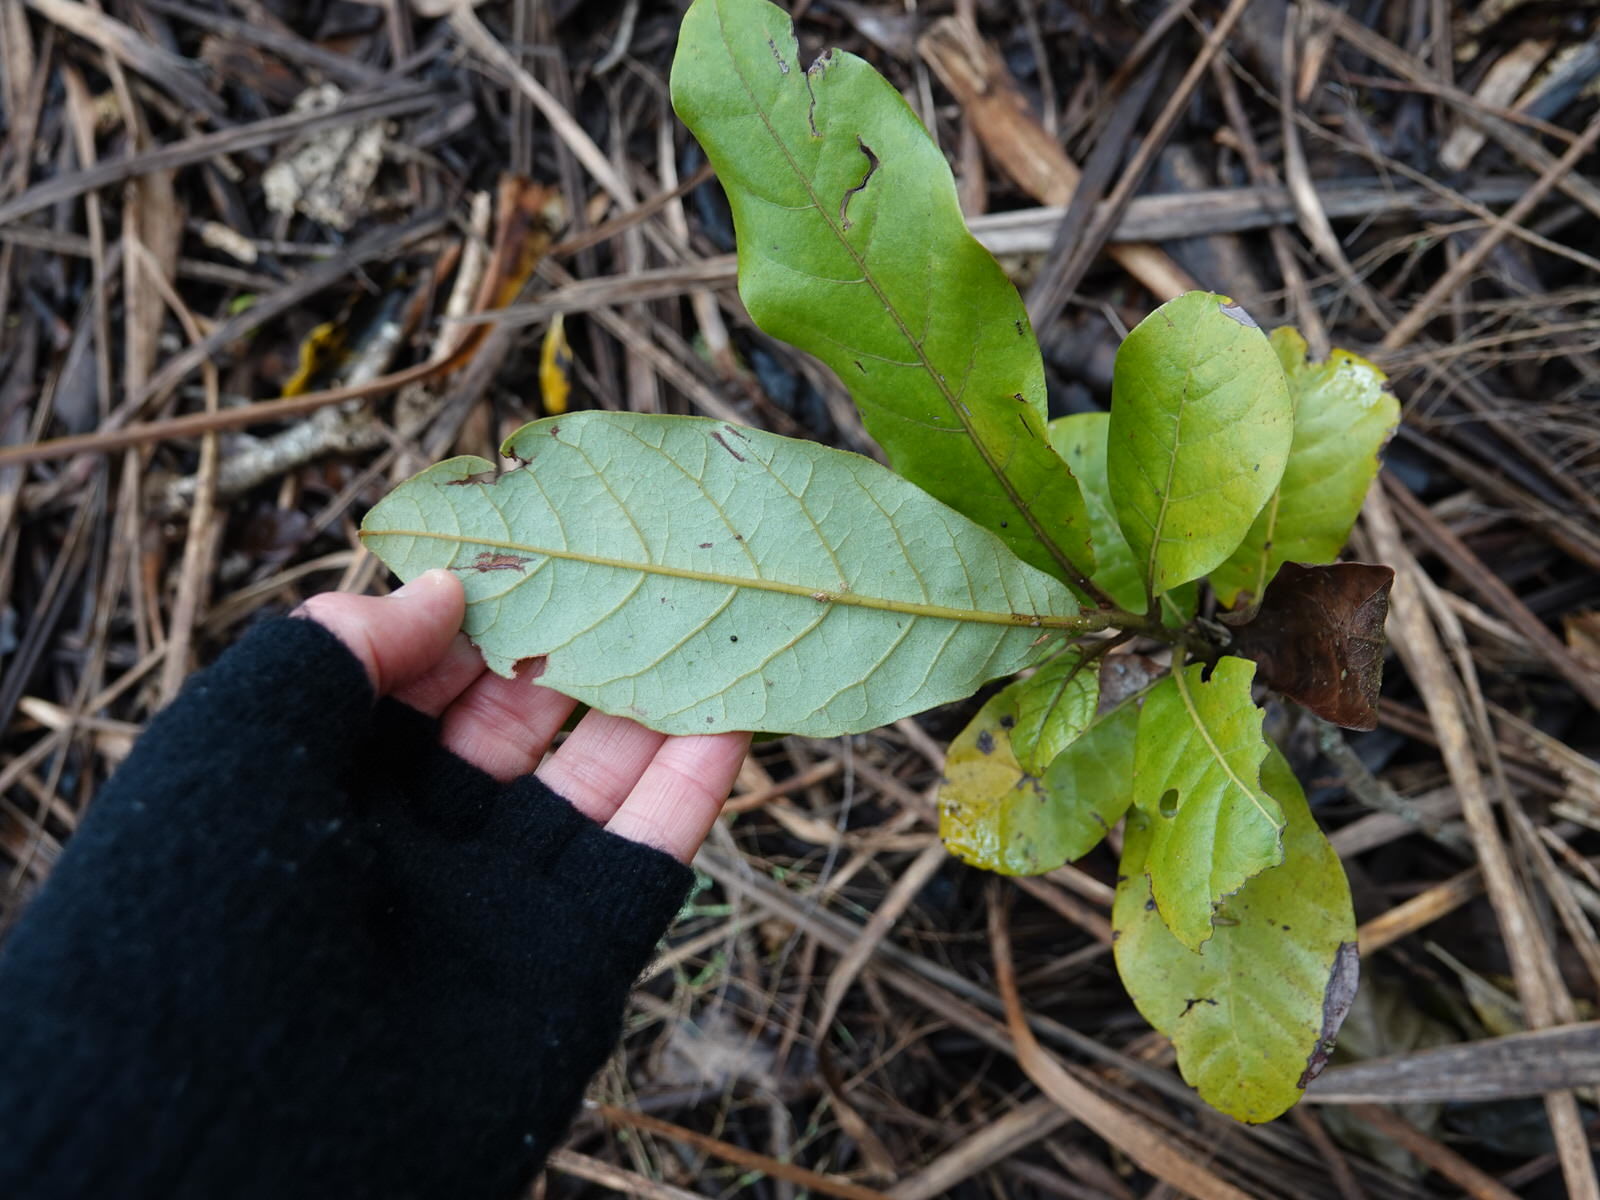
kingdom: Plantae
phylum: Tracheophyta
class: Magnoliopsida
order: Laurales
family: Lauraceae
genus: Beilschmiedia
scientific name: Beilschmiedia tarairi
